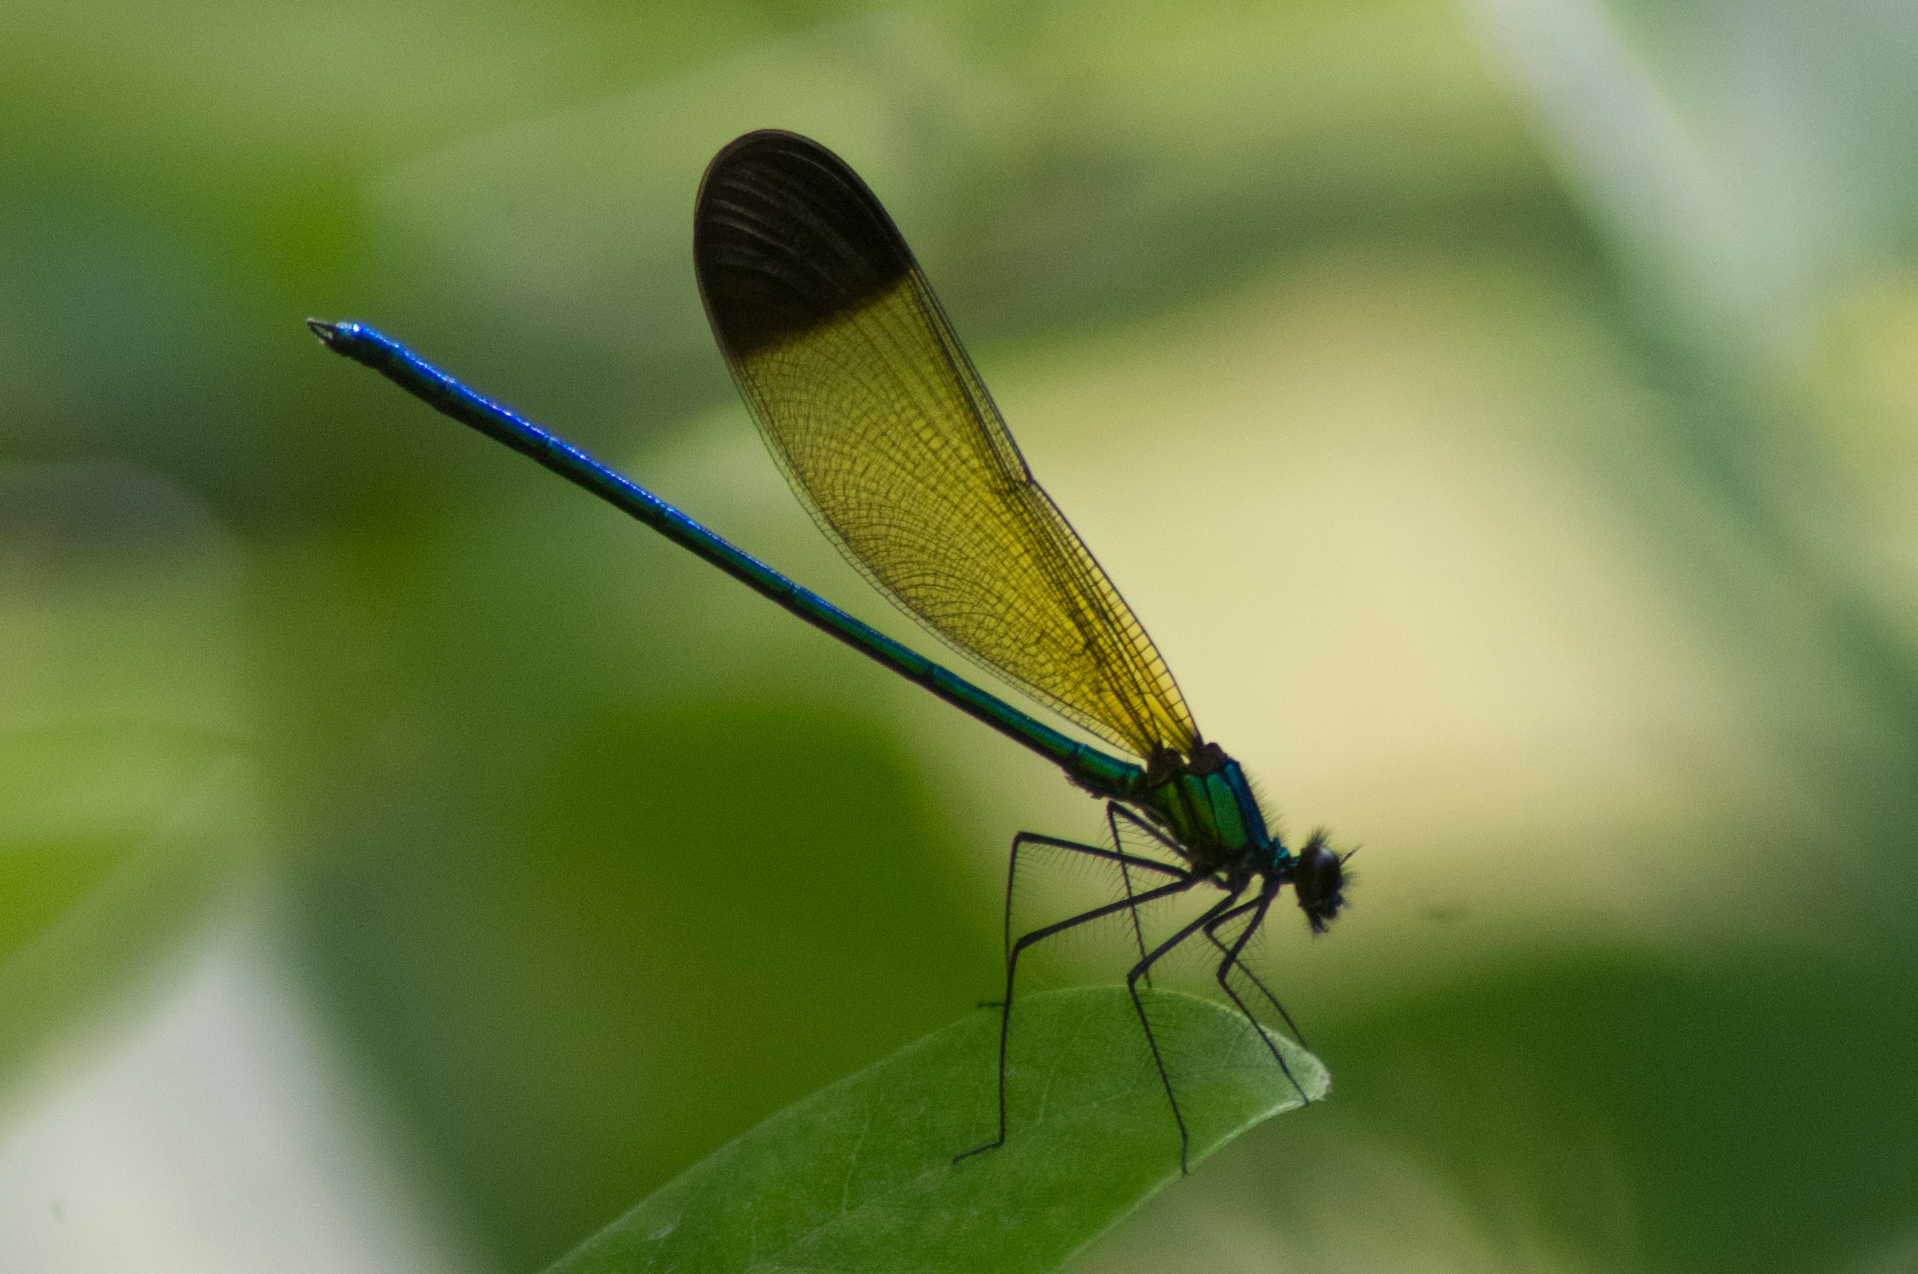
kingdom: Animalia
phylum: Arthropoda
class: Insecta
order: Odonata
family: Calopterygidae
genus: Calopteryx
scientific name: Calopteryx dimidiata
